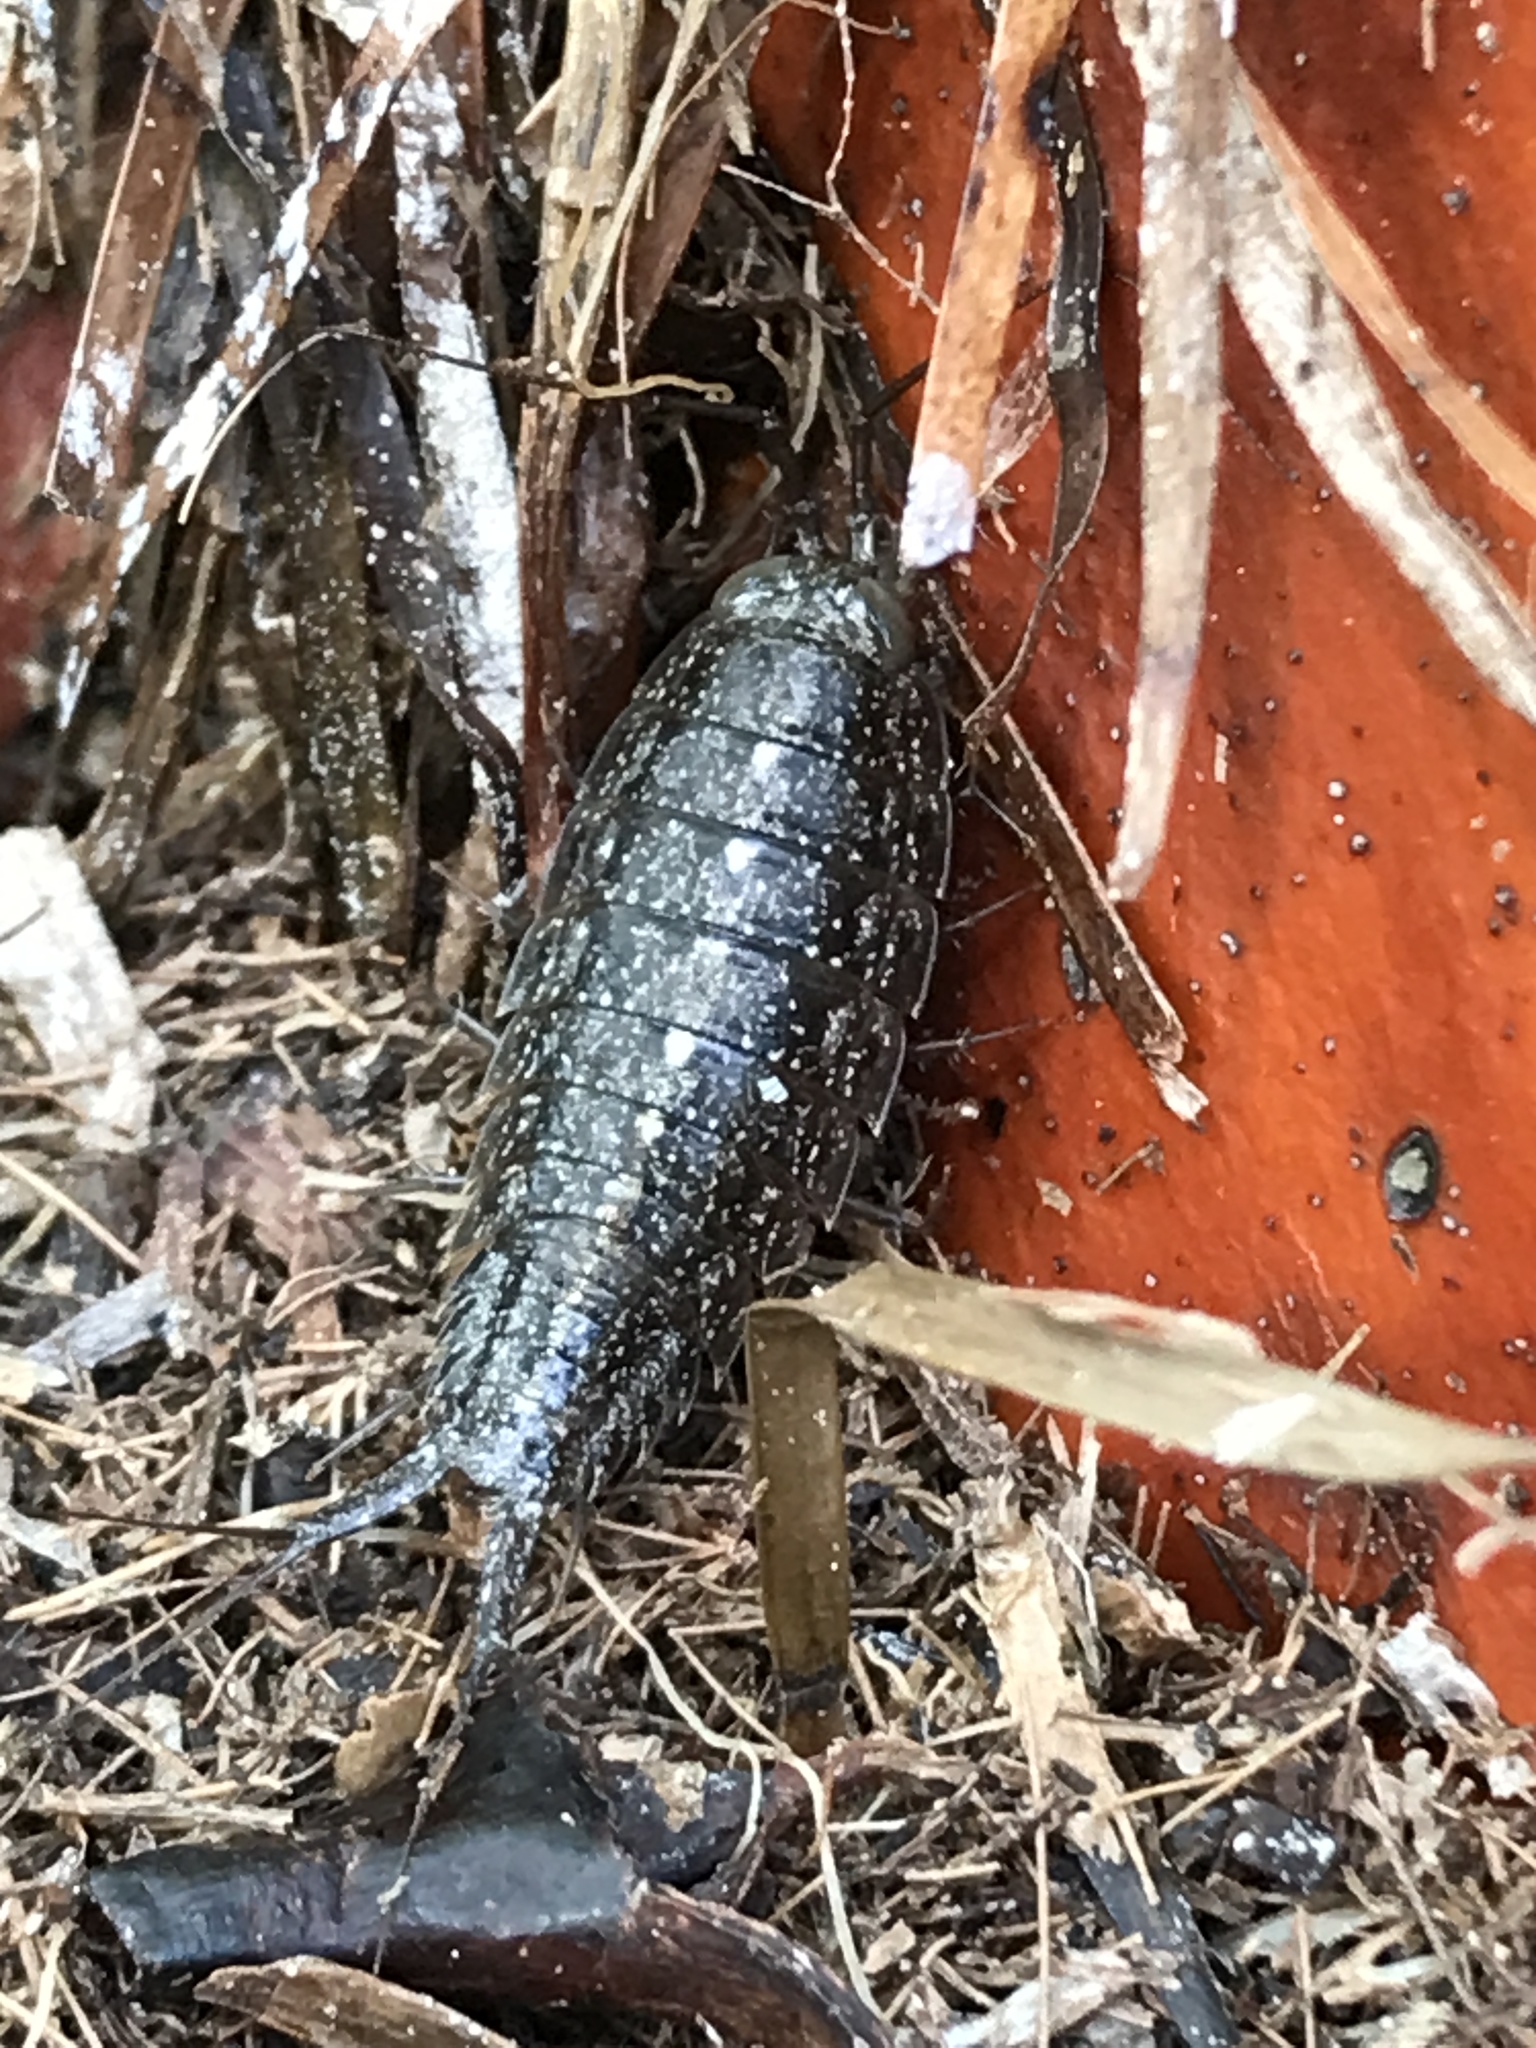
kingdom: Animalia
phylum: Arthropoda
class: Malacostraca
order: Isopoda
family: Ligiidae
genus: Ligia
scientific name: Ligia exotica
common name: Wharf roach
